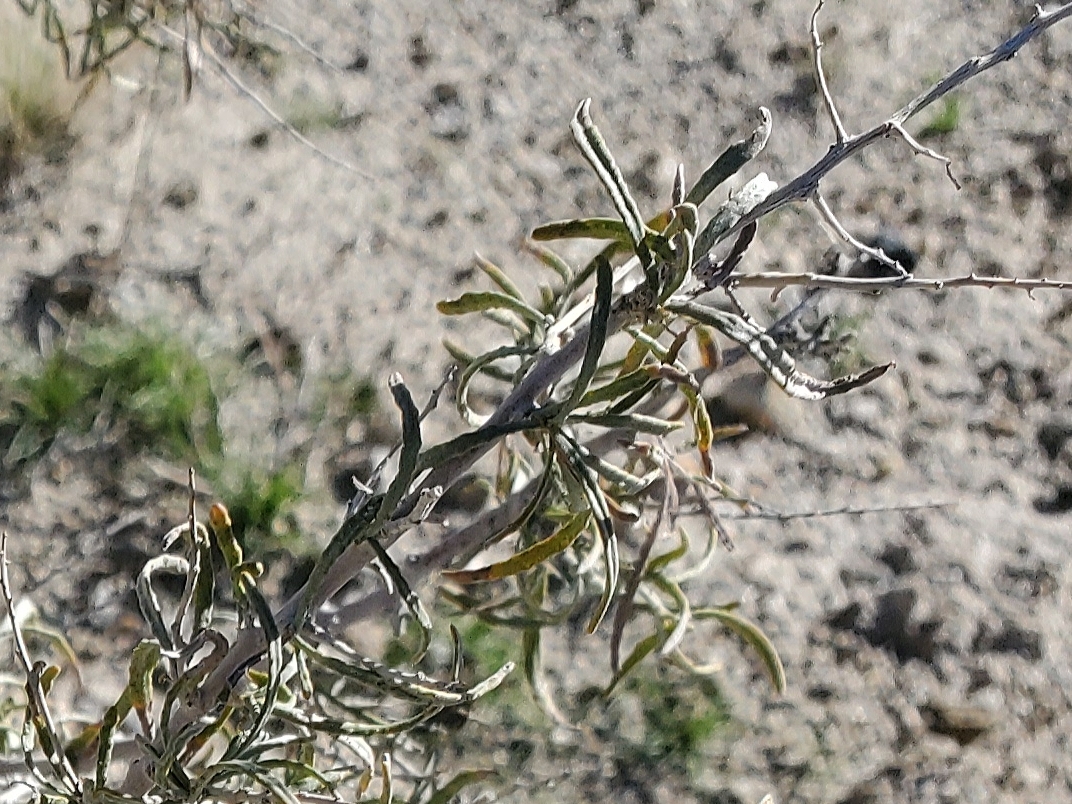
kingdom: Plantae
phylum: Tracheophyta
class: Magnoliopsida
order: Fabales
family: Fabaceae
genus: Psorothamnus
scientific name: Psorothamnus schottii
